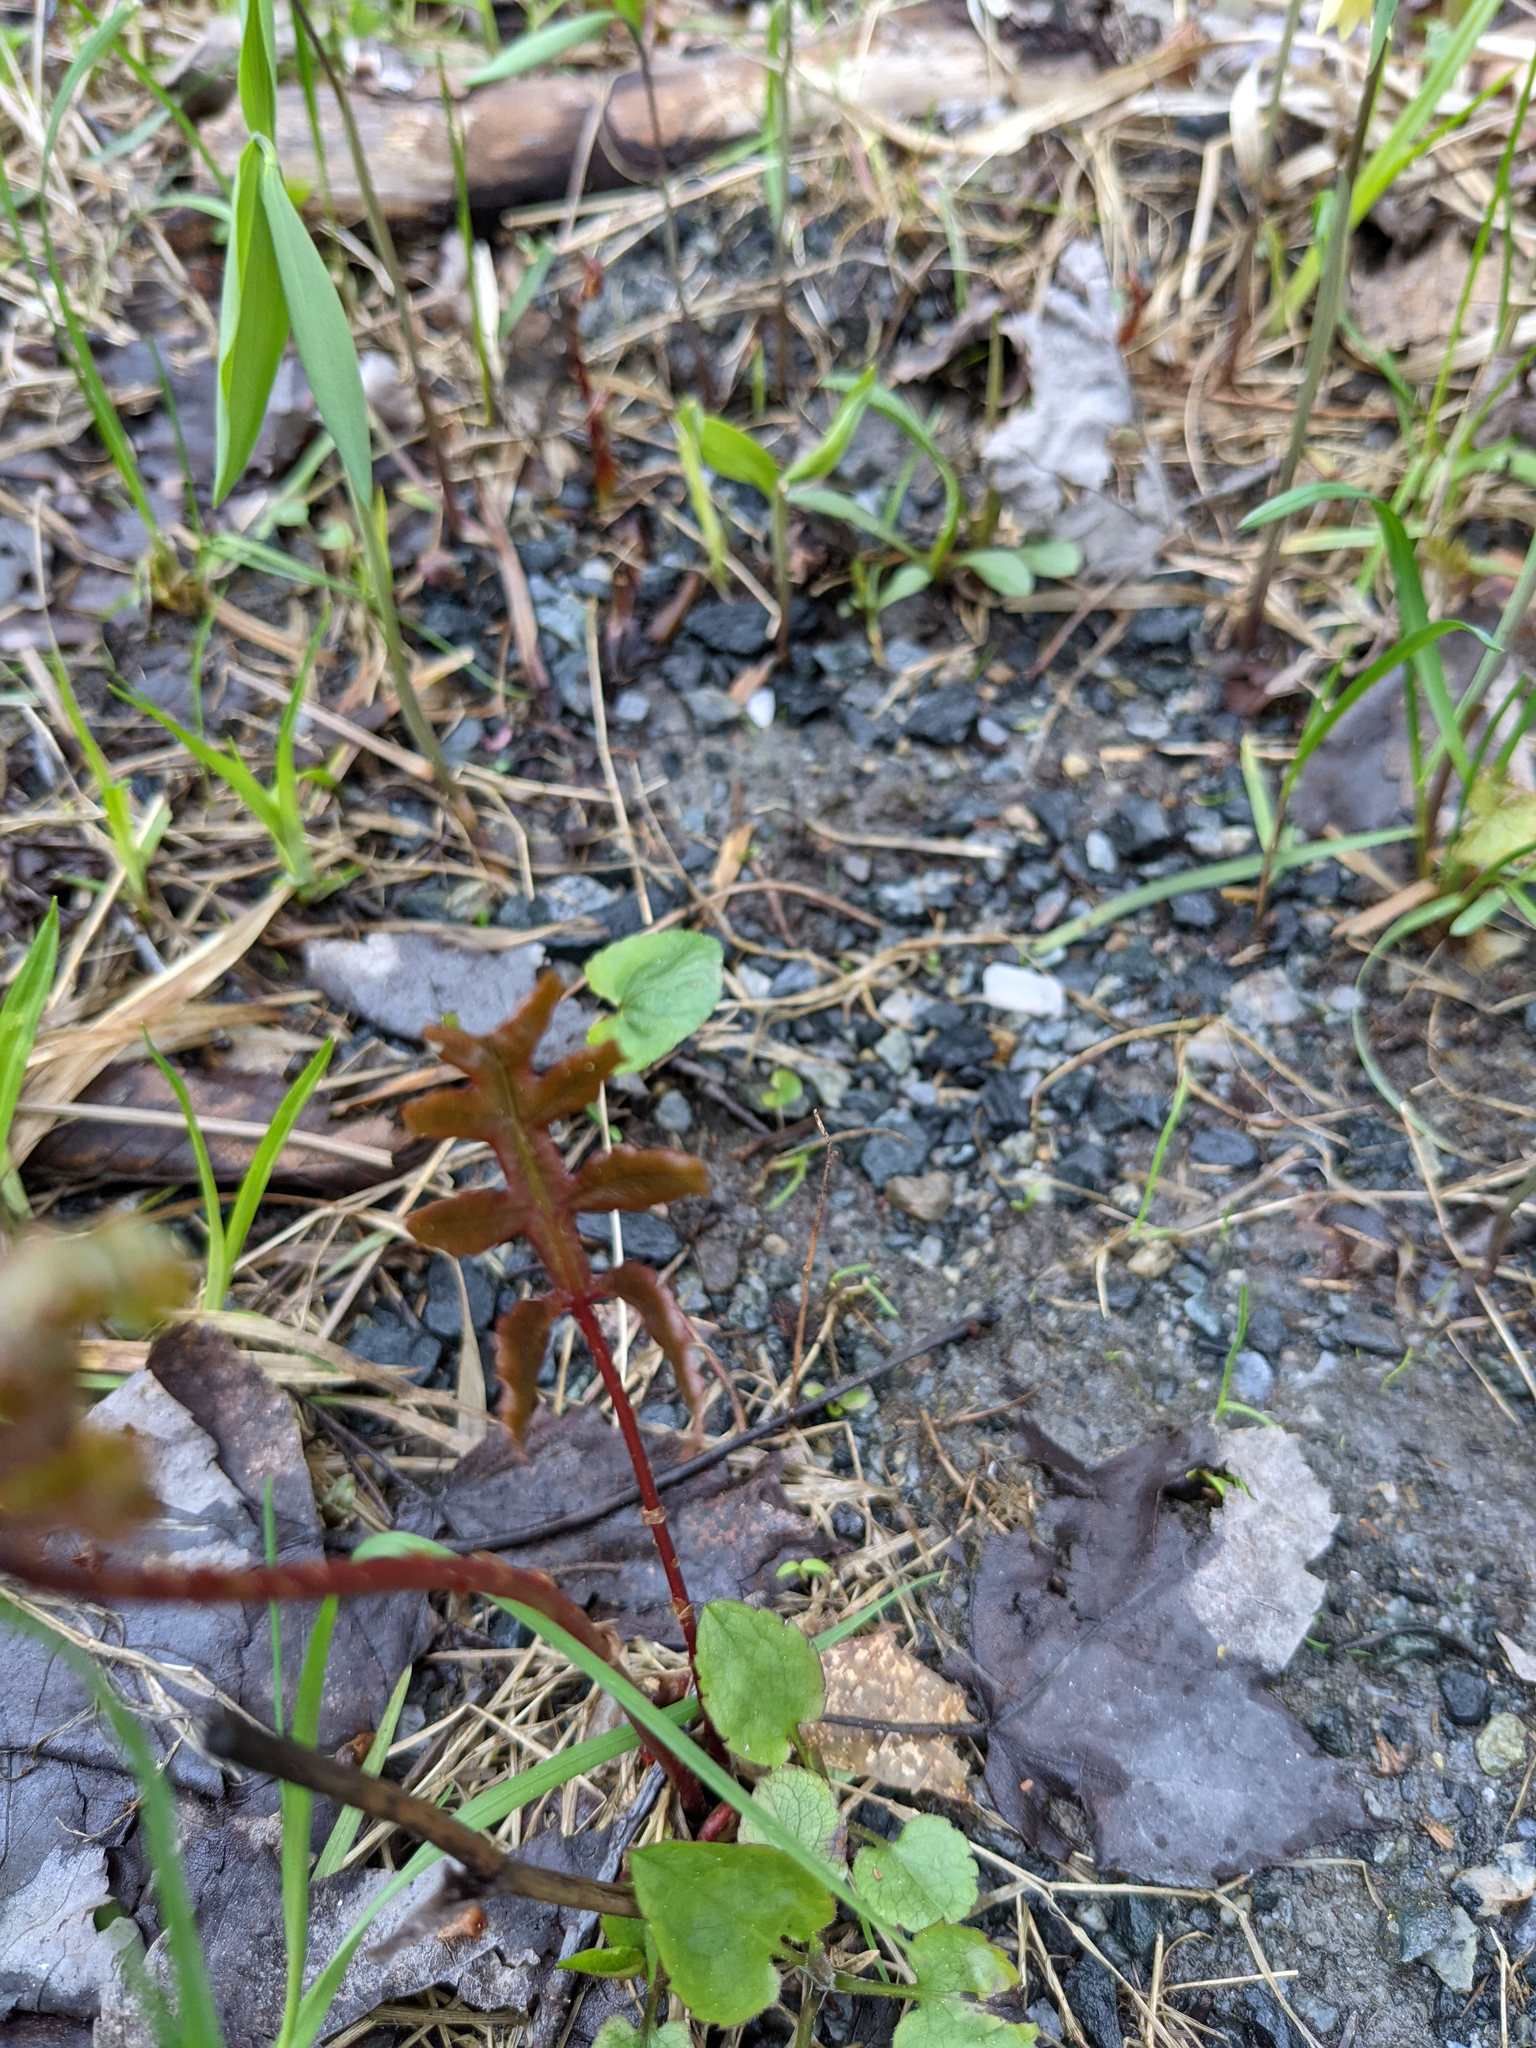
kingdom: Plantae
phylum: Tracheophyta
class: Polypodiopsida
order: Polypodiales
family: Onocleaceae
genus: Onoclea
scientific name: Onoclea sensibilis
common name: Sensitive fern
